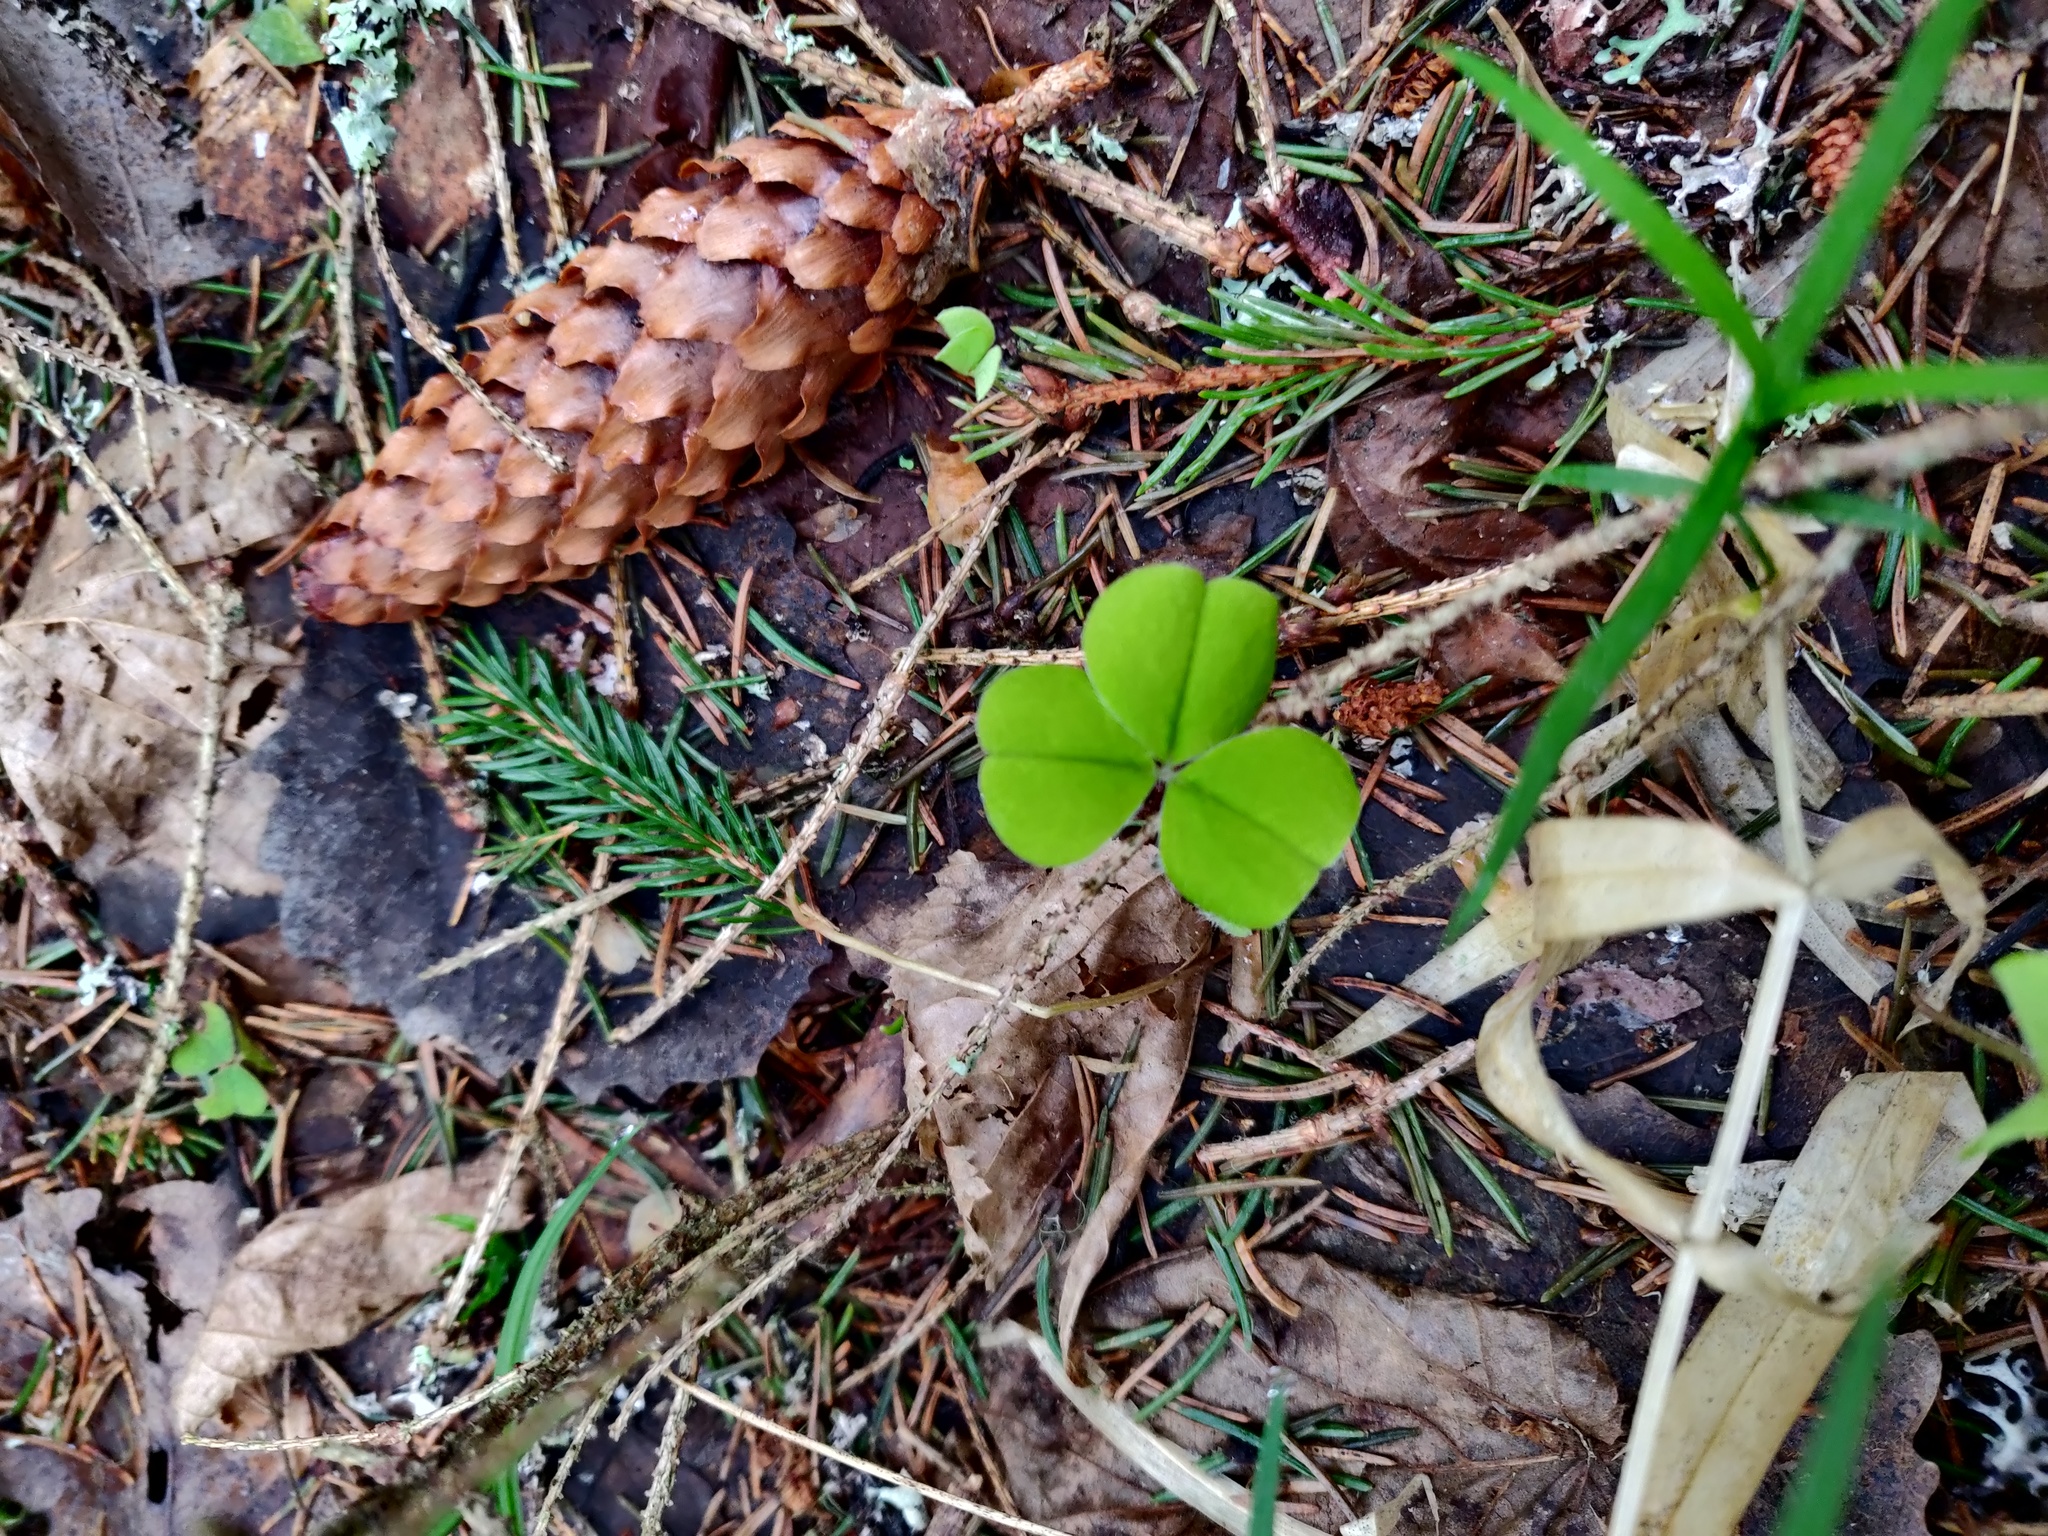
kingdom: Plantae
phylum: Tracheophyta
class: Magnoliopsida
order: Oxalidales
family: Oxalidaceae
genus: Oxalis
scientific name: Oxalis acetosella
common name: Wood-sorrel
